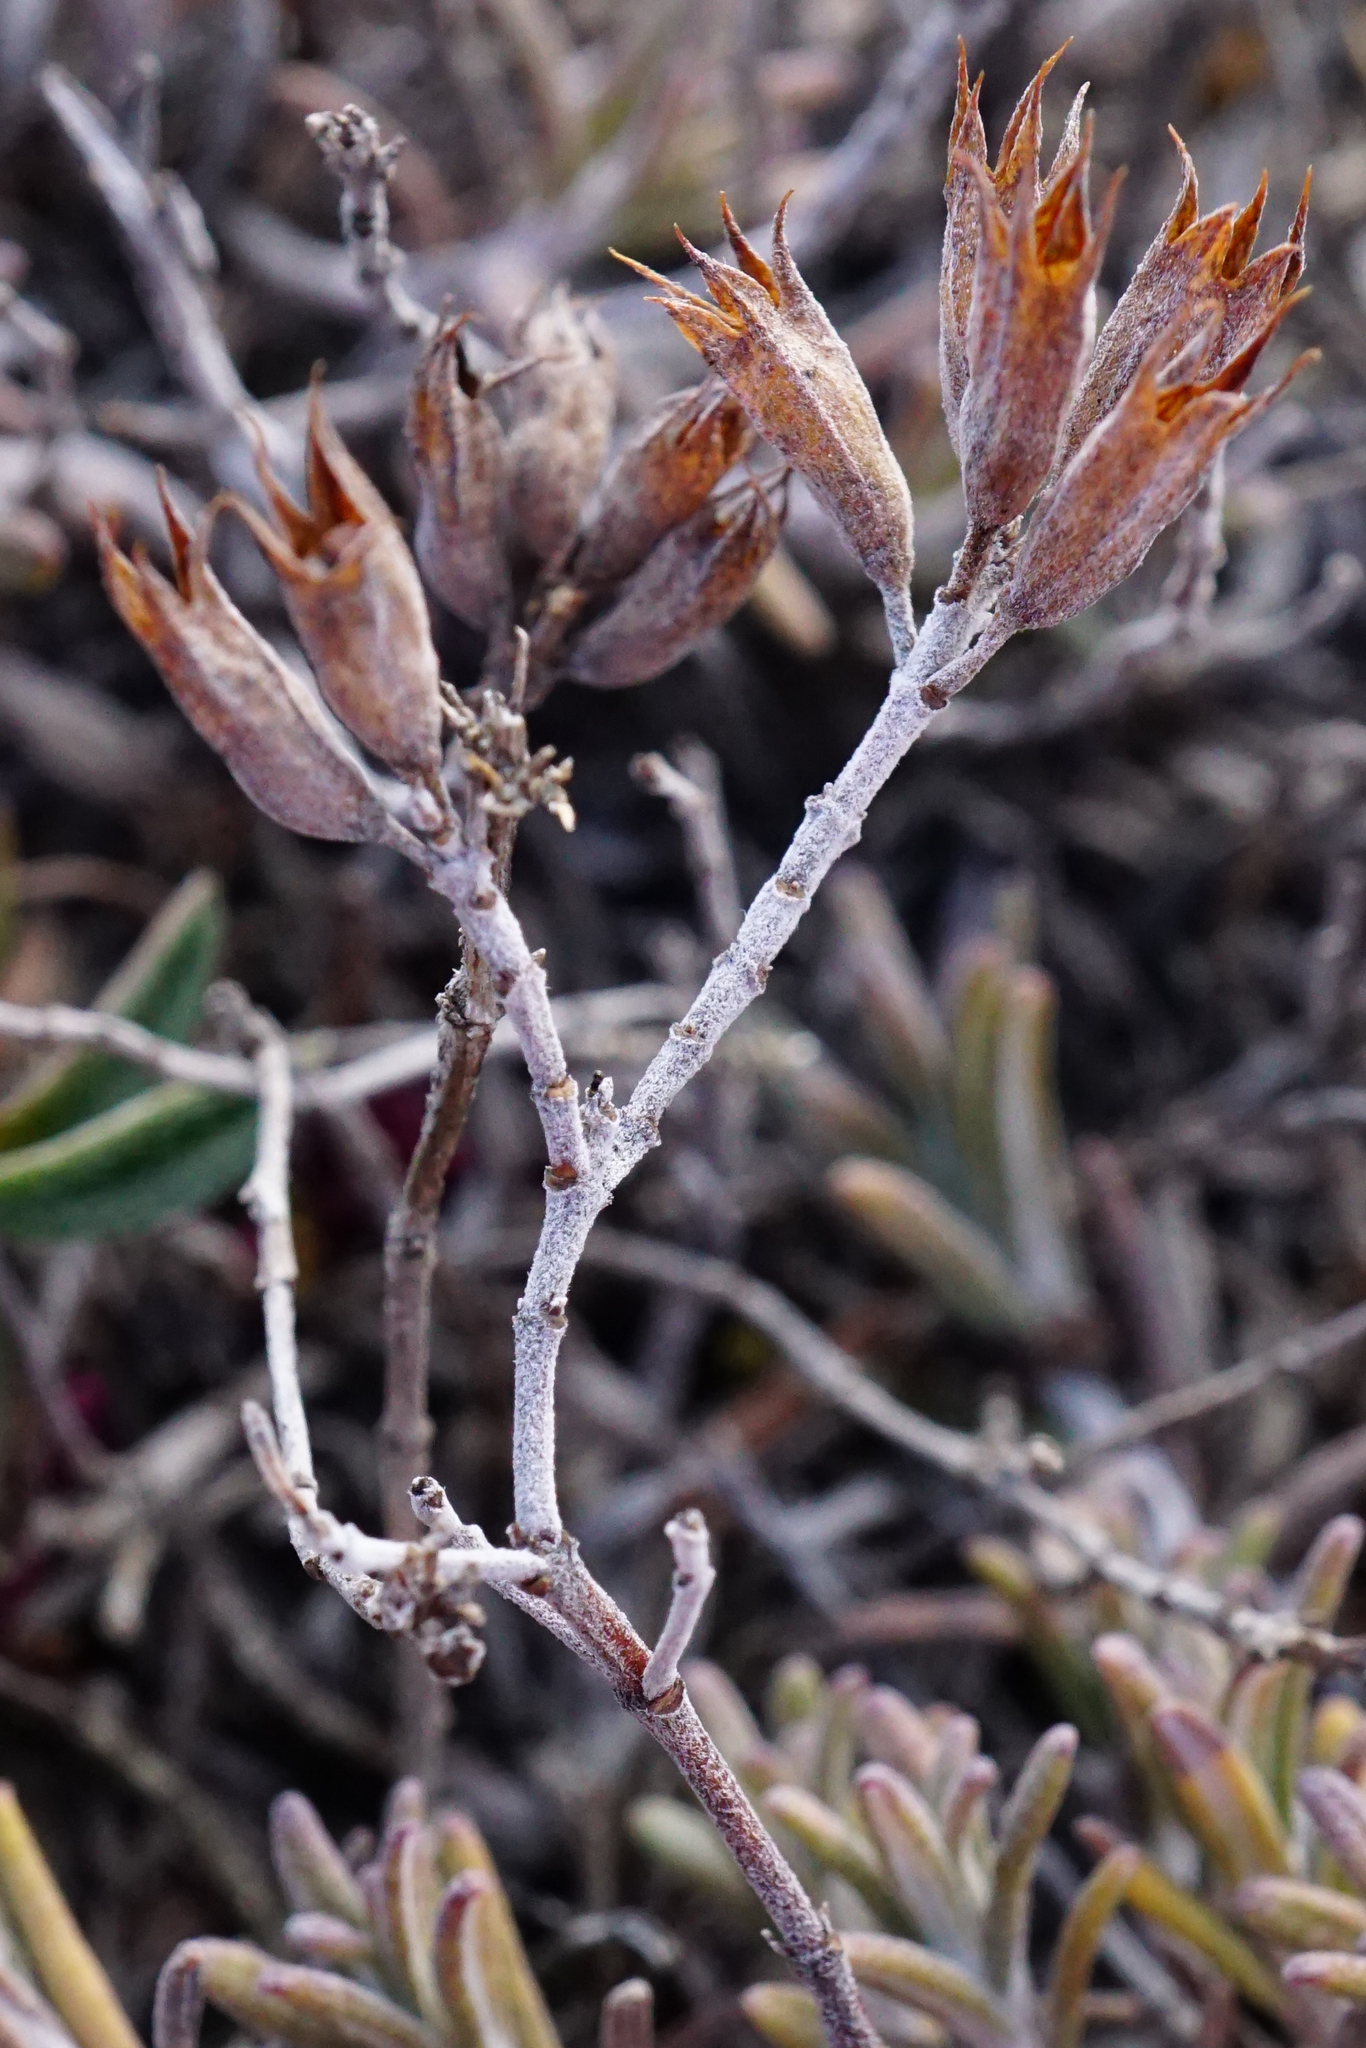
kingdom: Plantae
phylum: Tracheophyta
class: Magnoliopsida
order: Lamiales
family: Lamiaceae
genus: Teucrium
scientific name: Teucrium montanum
